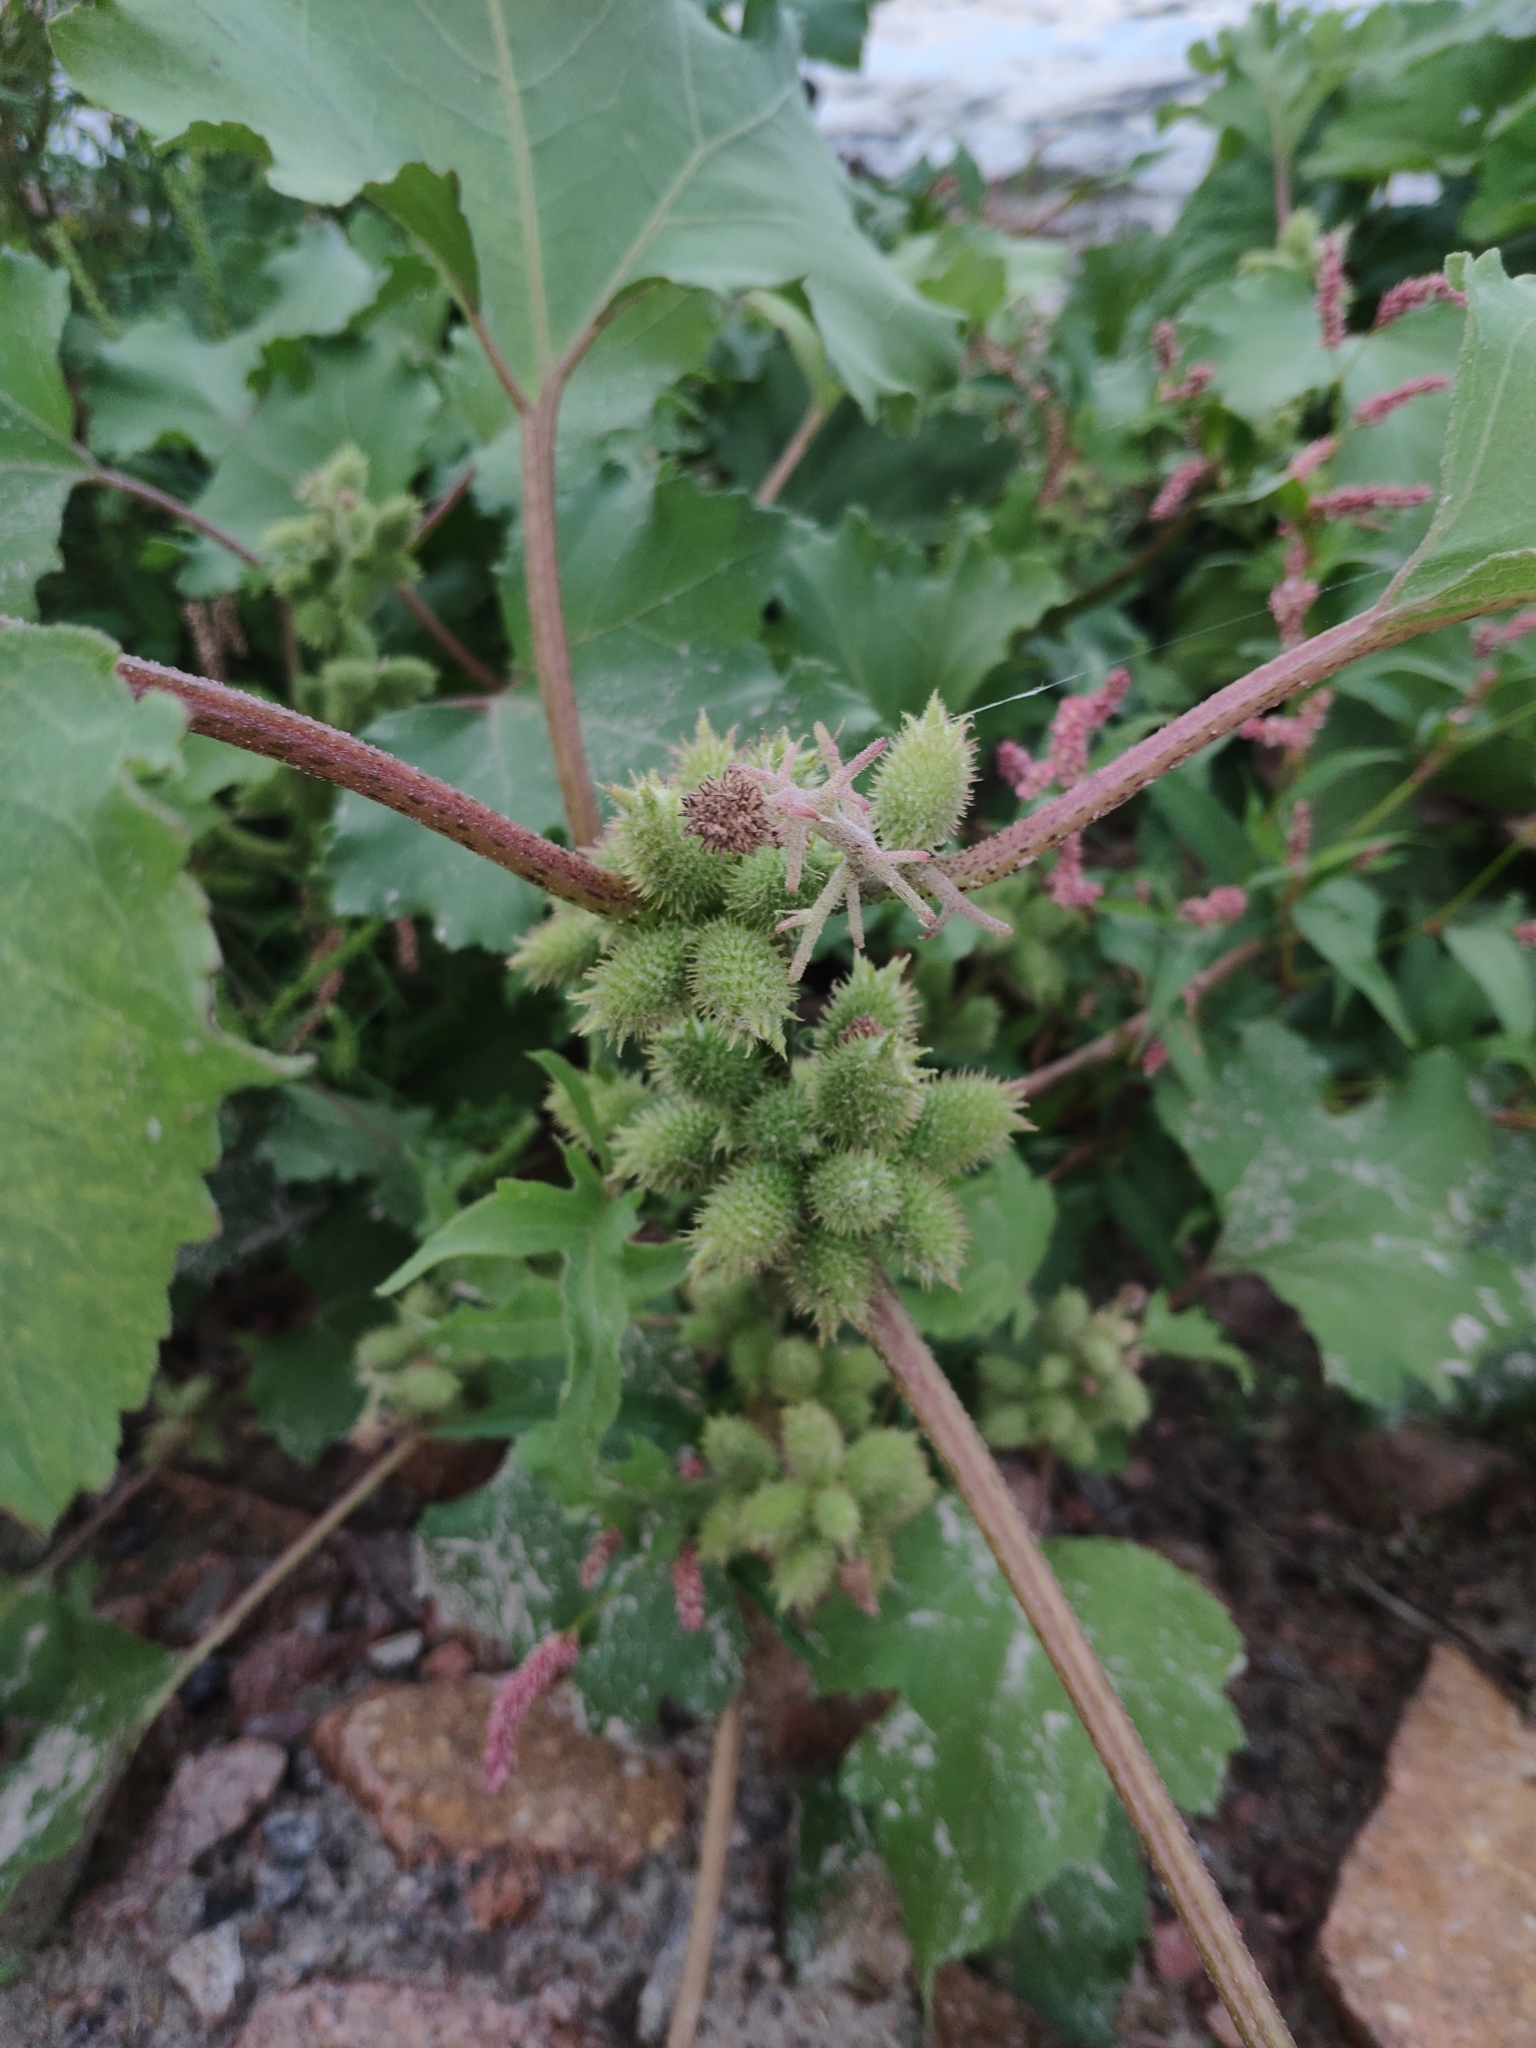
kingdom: Plantae
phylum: Tracheophyta
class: Magnoliopsida
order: Asterales
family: Asteraceae
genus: Xanthium
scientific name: Xanthium orientale
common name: Californian burr
